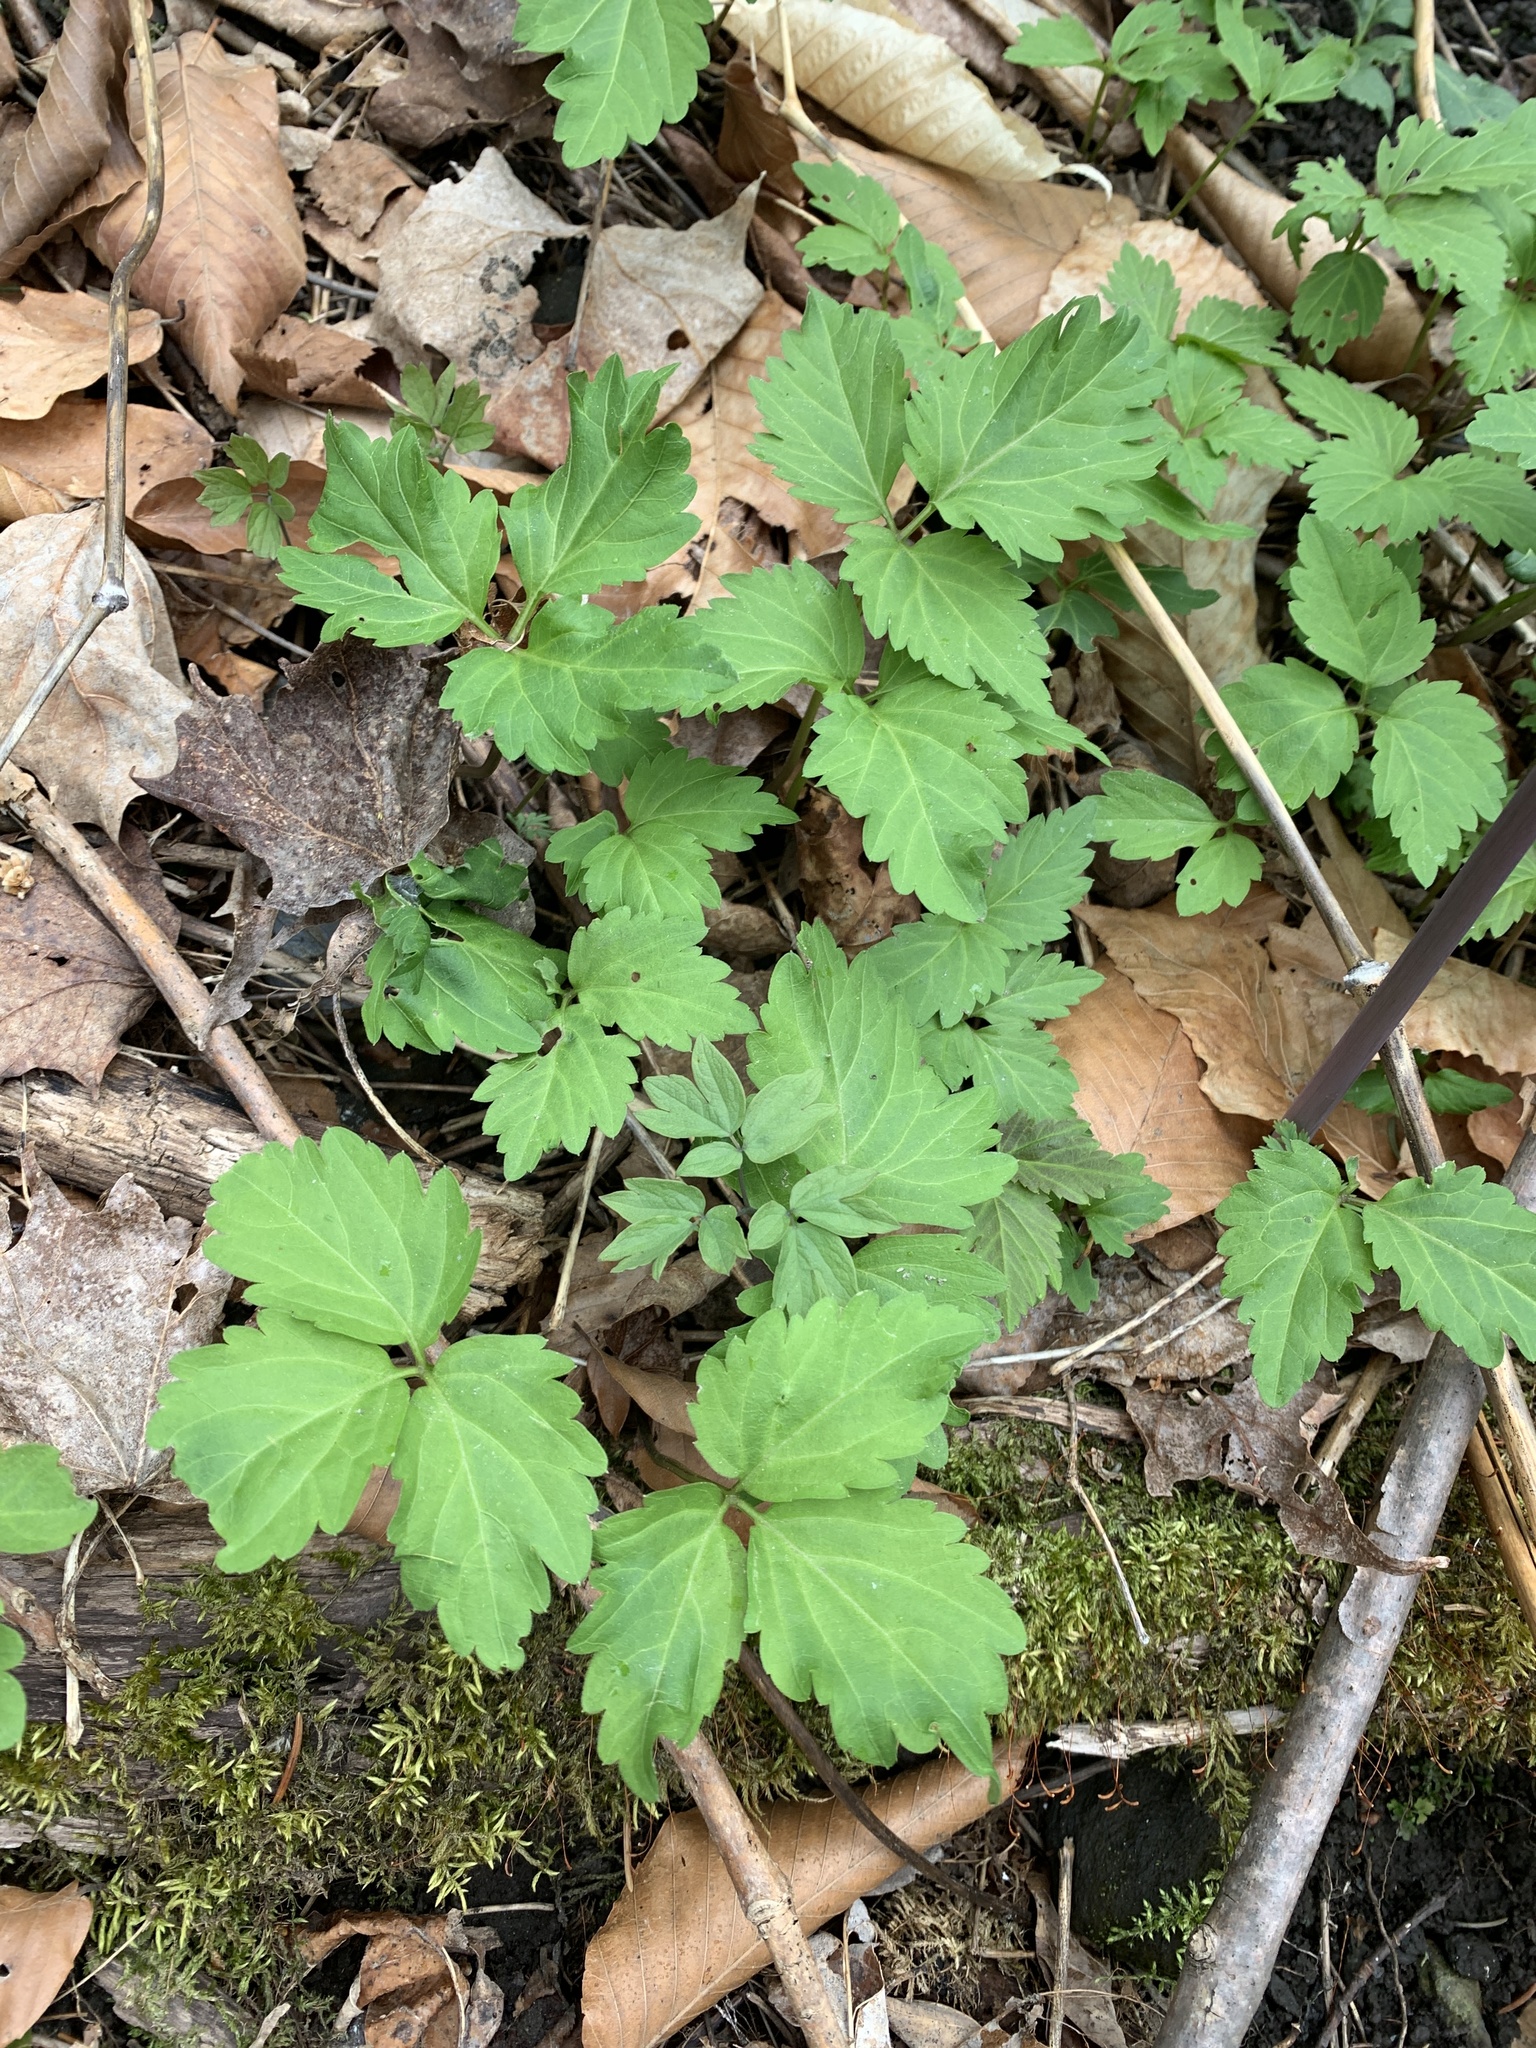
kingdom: Plantae
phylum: Tracheophyta
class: Magnoliopsida
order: Brassicales
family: Brassicaceae
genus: Cardamine
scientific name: Cardamine diphylla
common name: Broad-leaved toothwort
